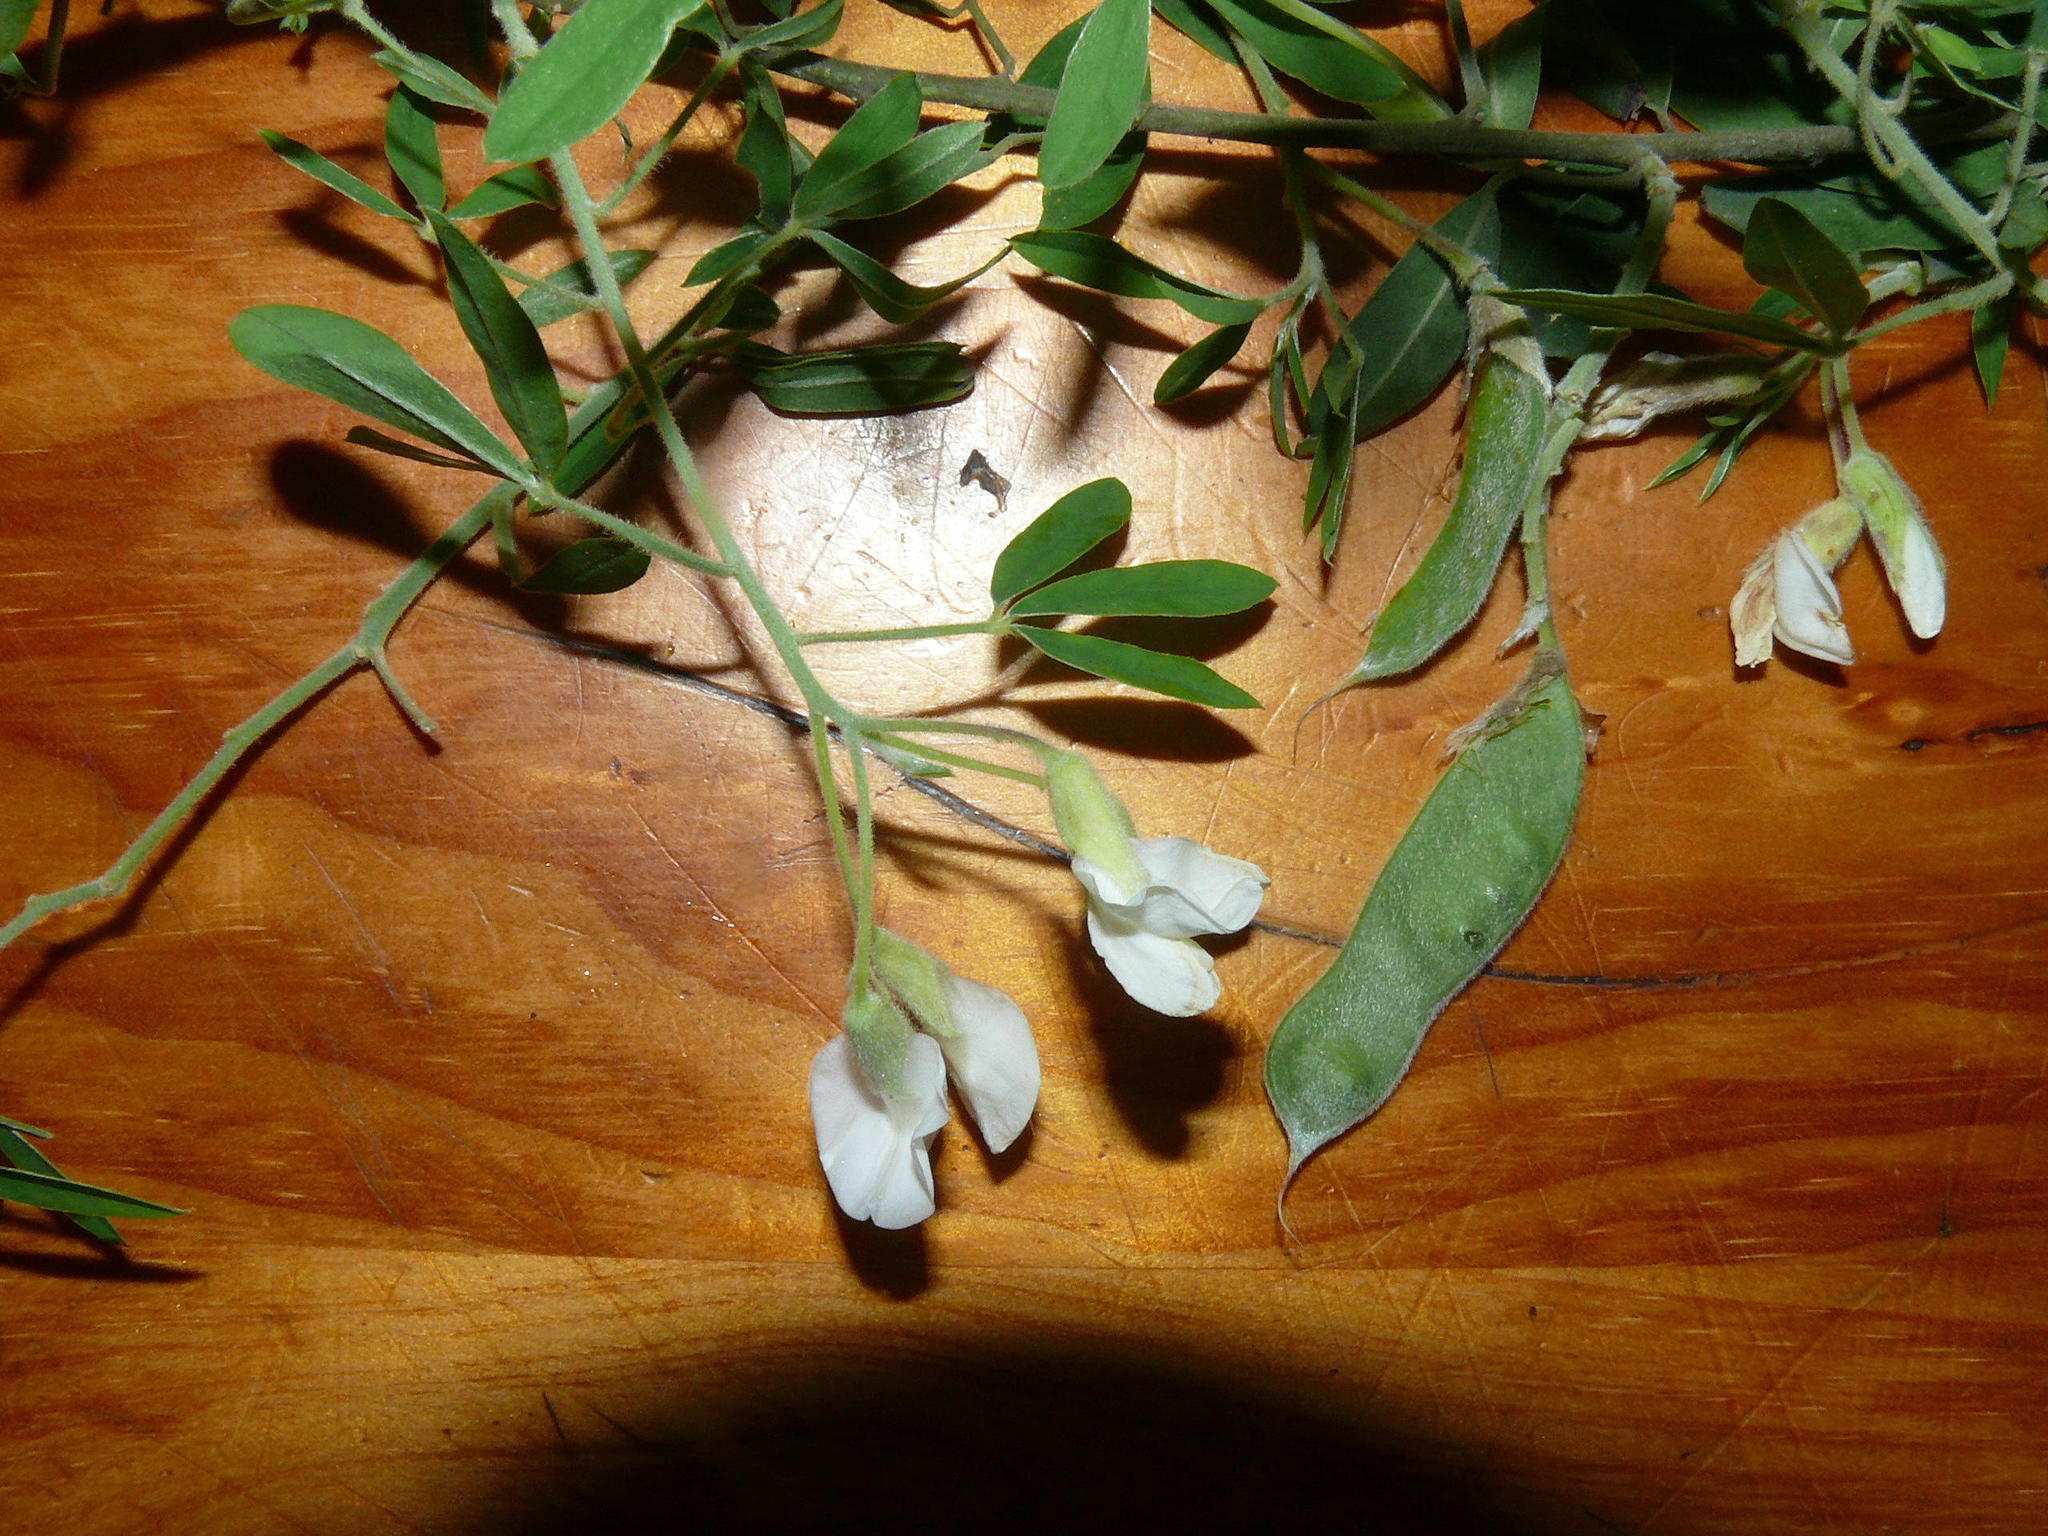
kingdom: Plantae
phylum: Tracheophyta
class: Magnoliopsida
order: Fabales
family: Fabaceae
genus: Chamaecytisus
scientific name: Chamaecytisus prolifer
